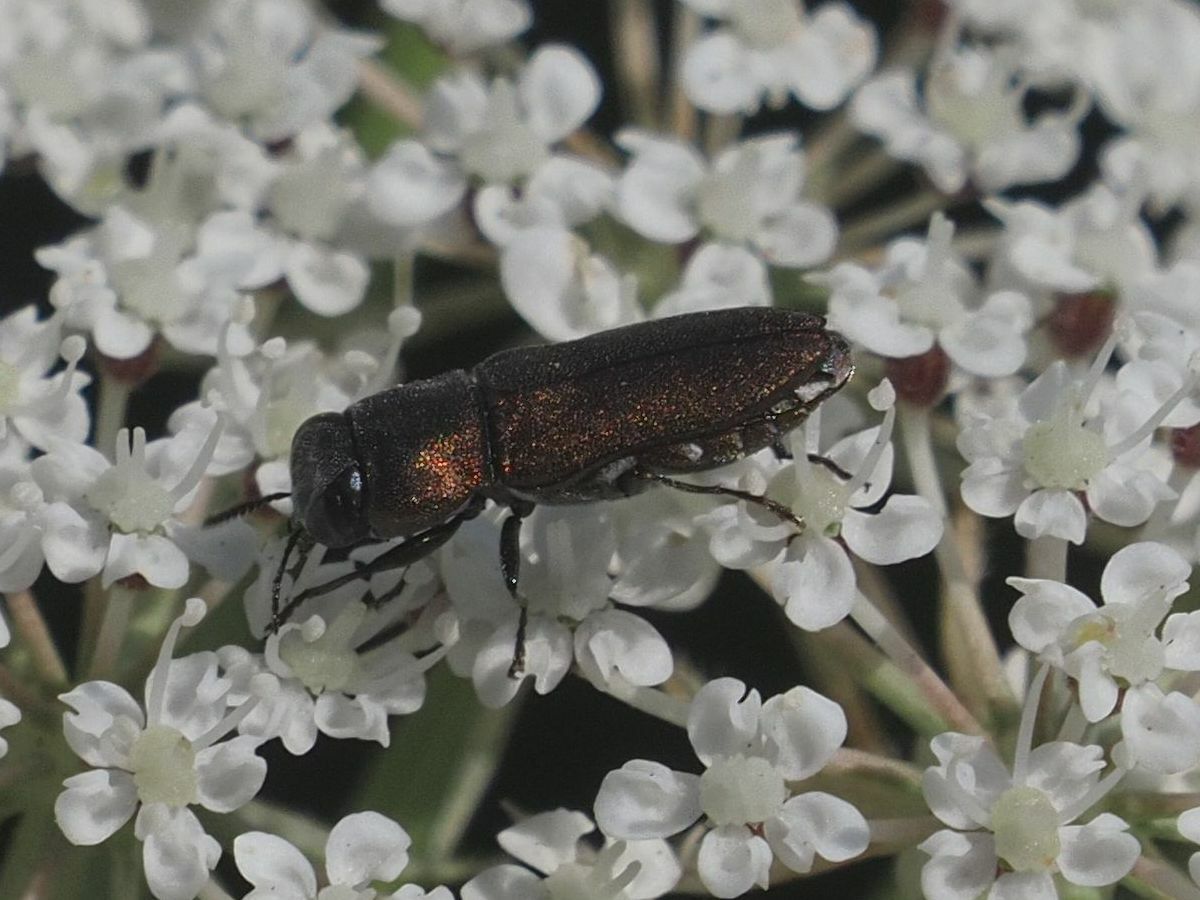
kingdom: Animalia
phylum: Arthropoda
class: Insecta
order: Coleoptera
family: Buprestidae
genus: Anthaxia
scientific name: Anthaxia umbellatarum
